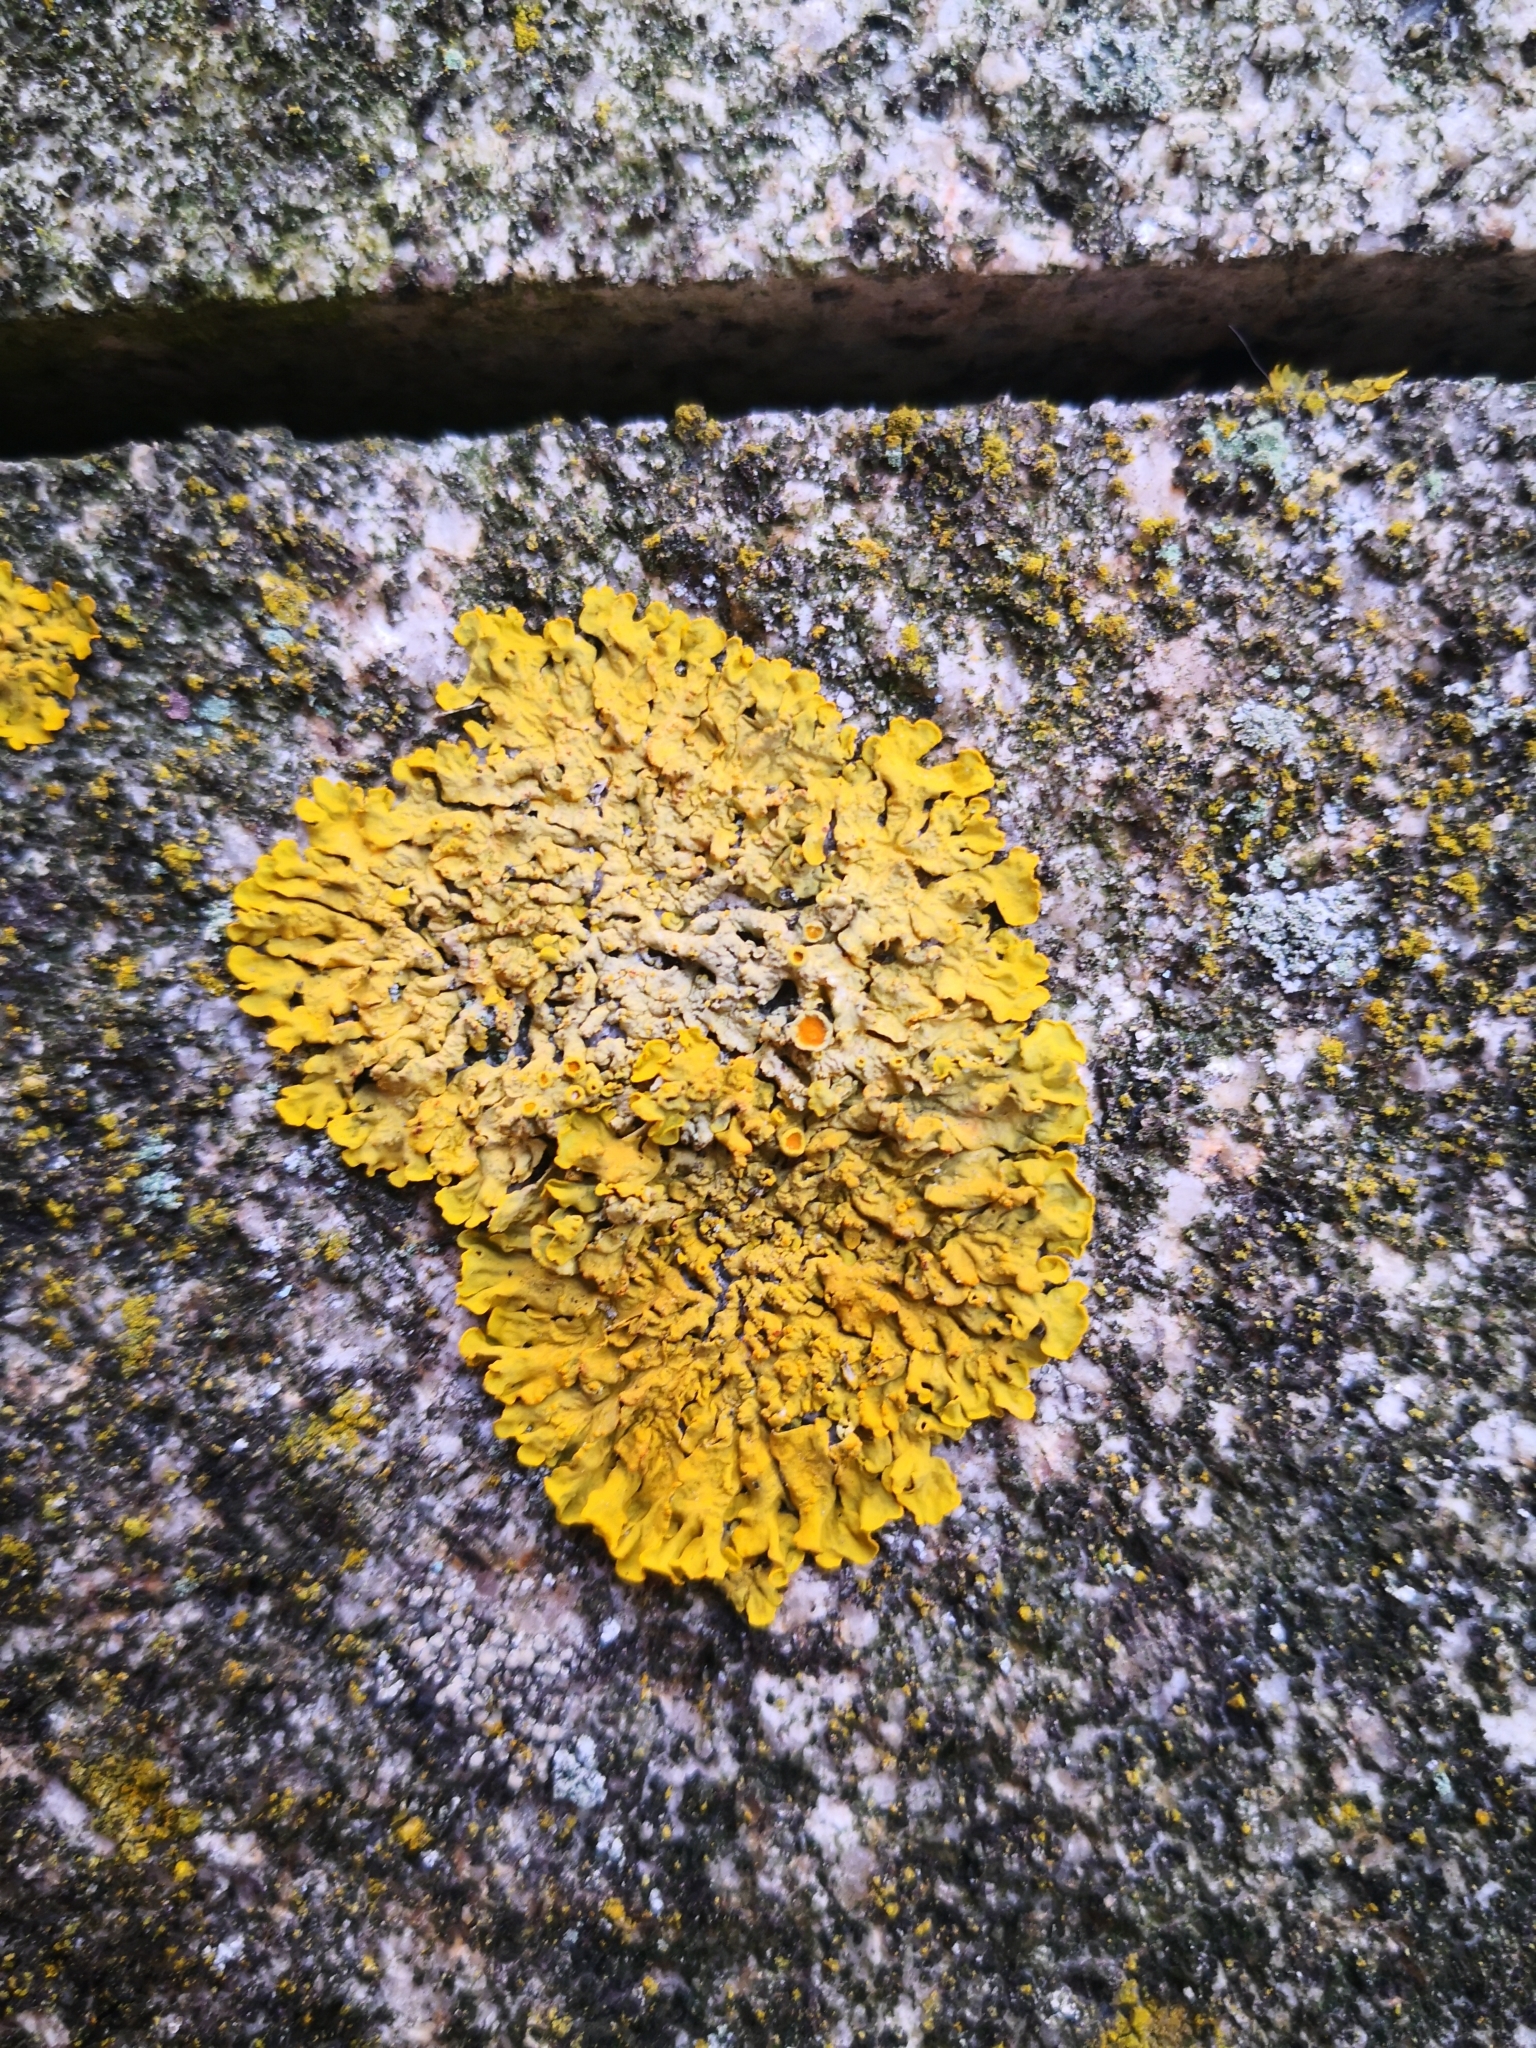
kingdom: Fungi
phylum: Ascomycota
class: Lecanoromycetes
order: Teloschistales
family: Teloschistaceae
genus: Xanthoria
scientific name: Xanthoria parietina
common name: Common orange lichen
